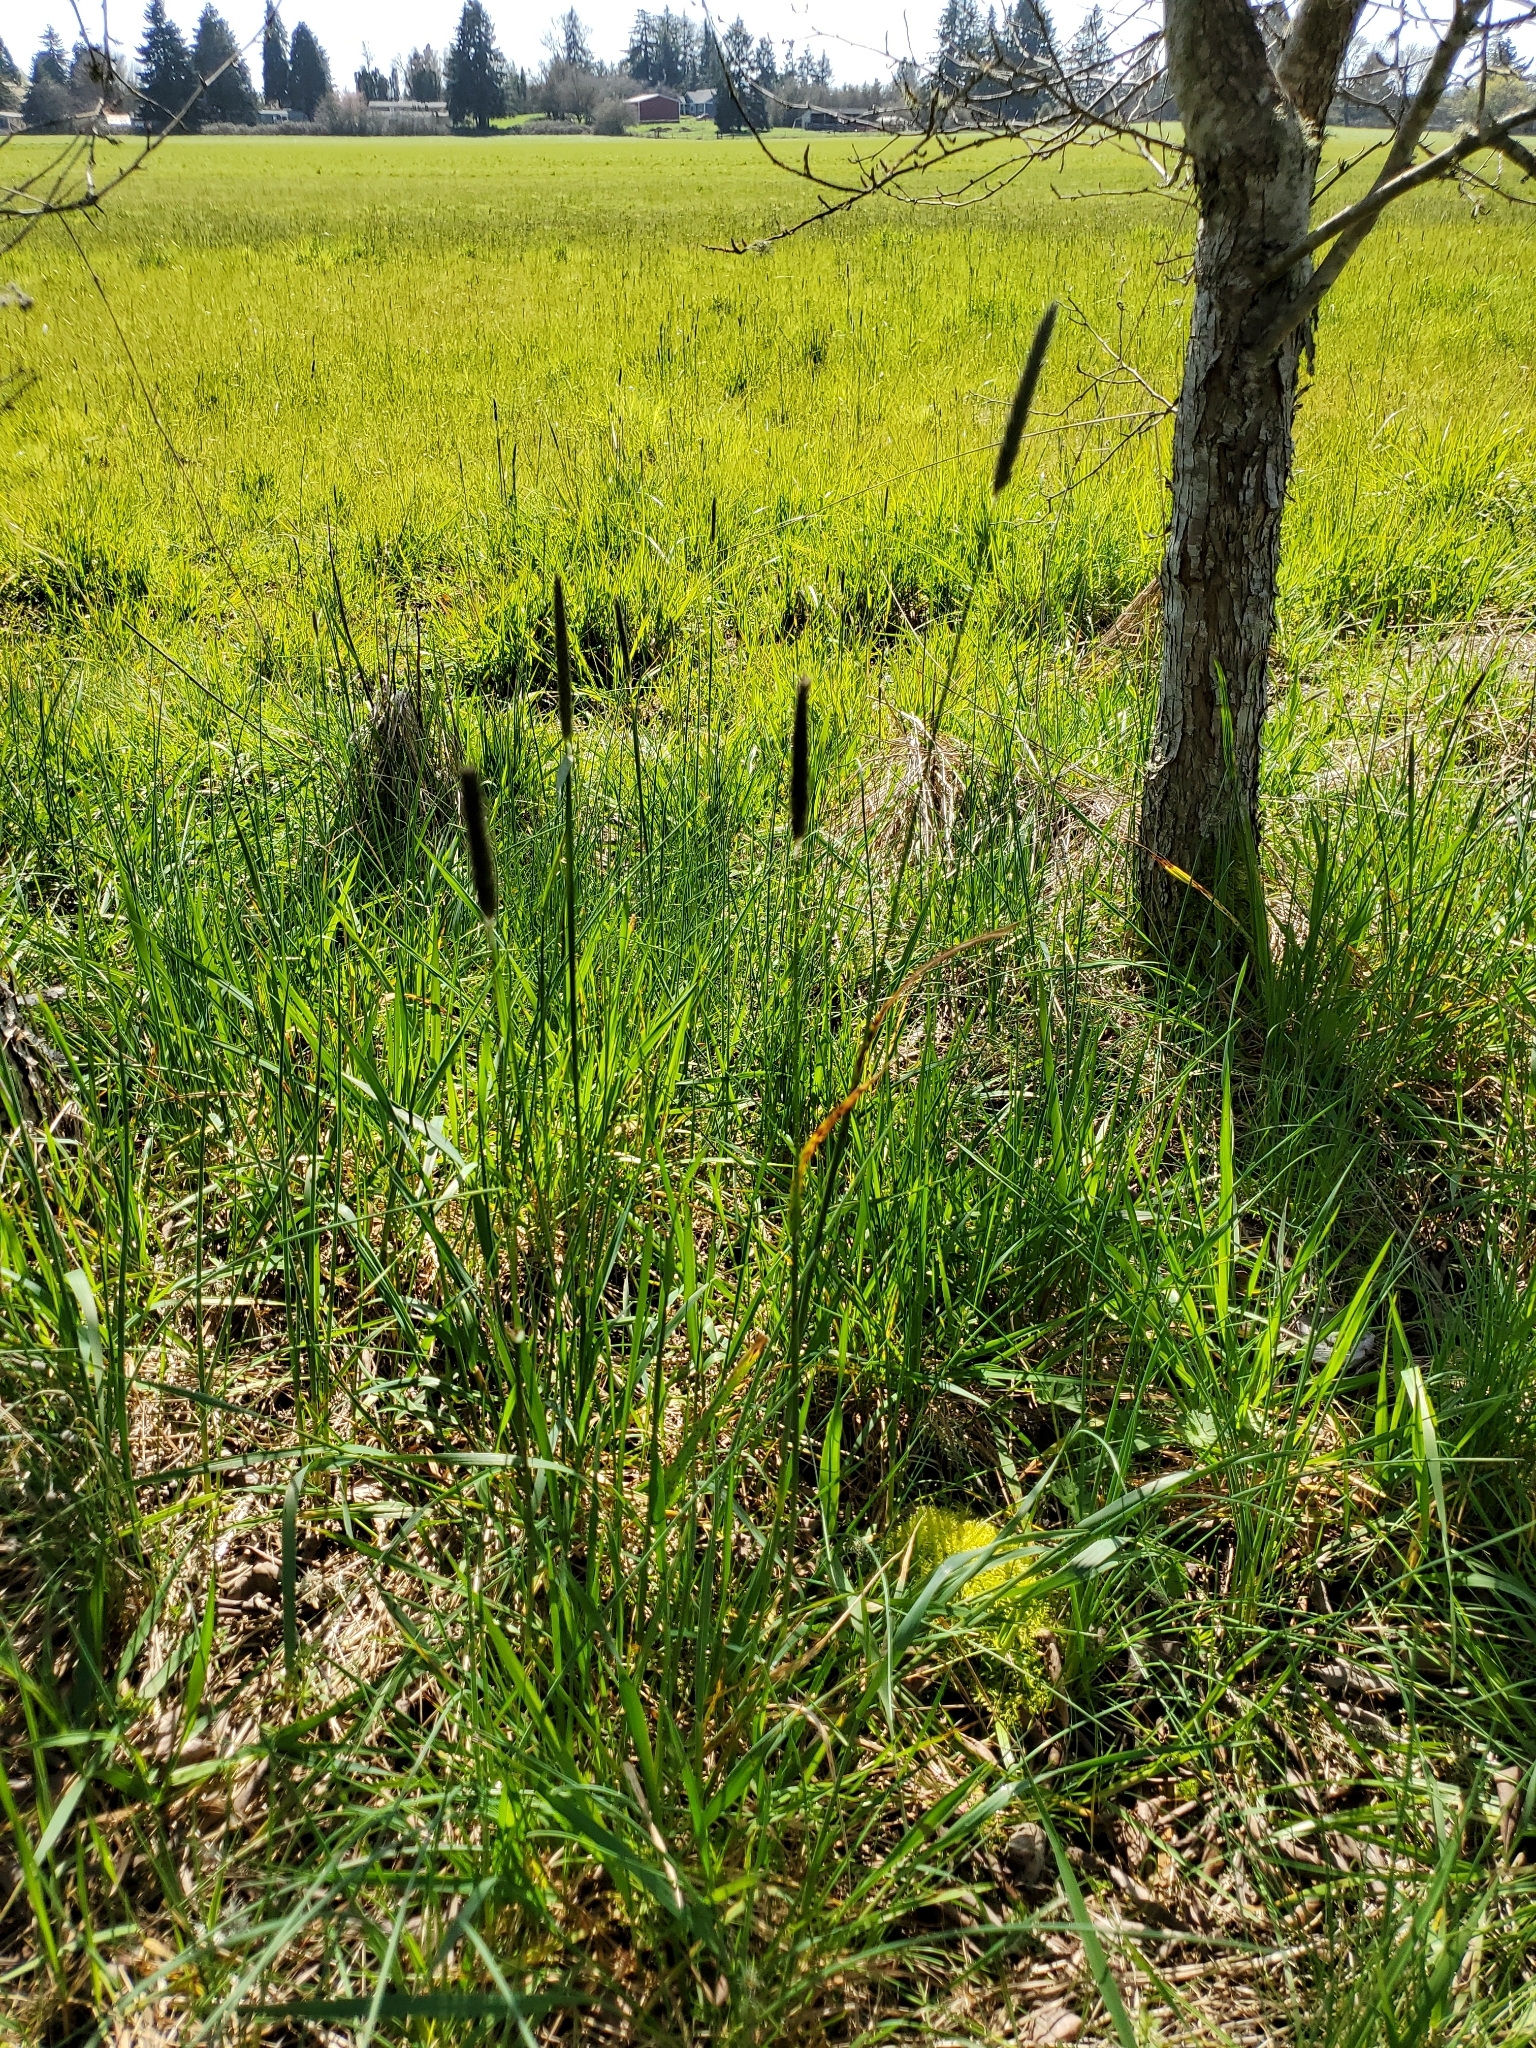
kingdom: Plantae
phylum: Tracheophyta
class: Liliopsida
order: Poales
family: Poaceae
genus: Alopecurus
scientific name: Alopecurus pratensis
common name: Meadow foxtail
